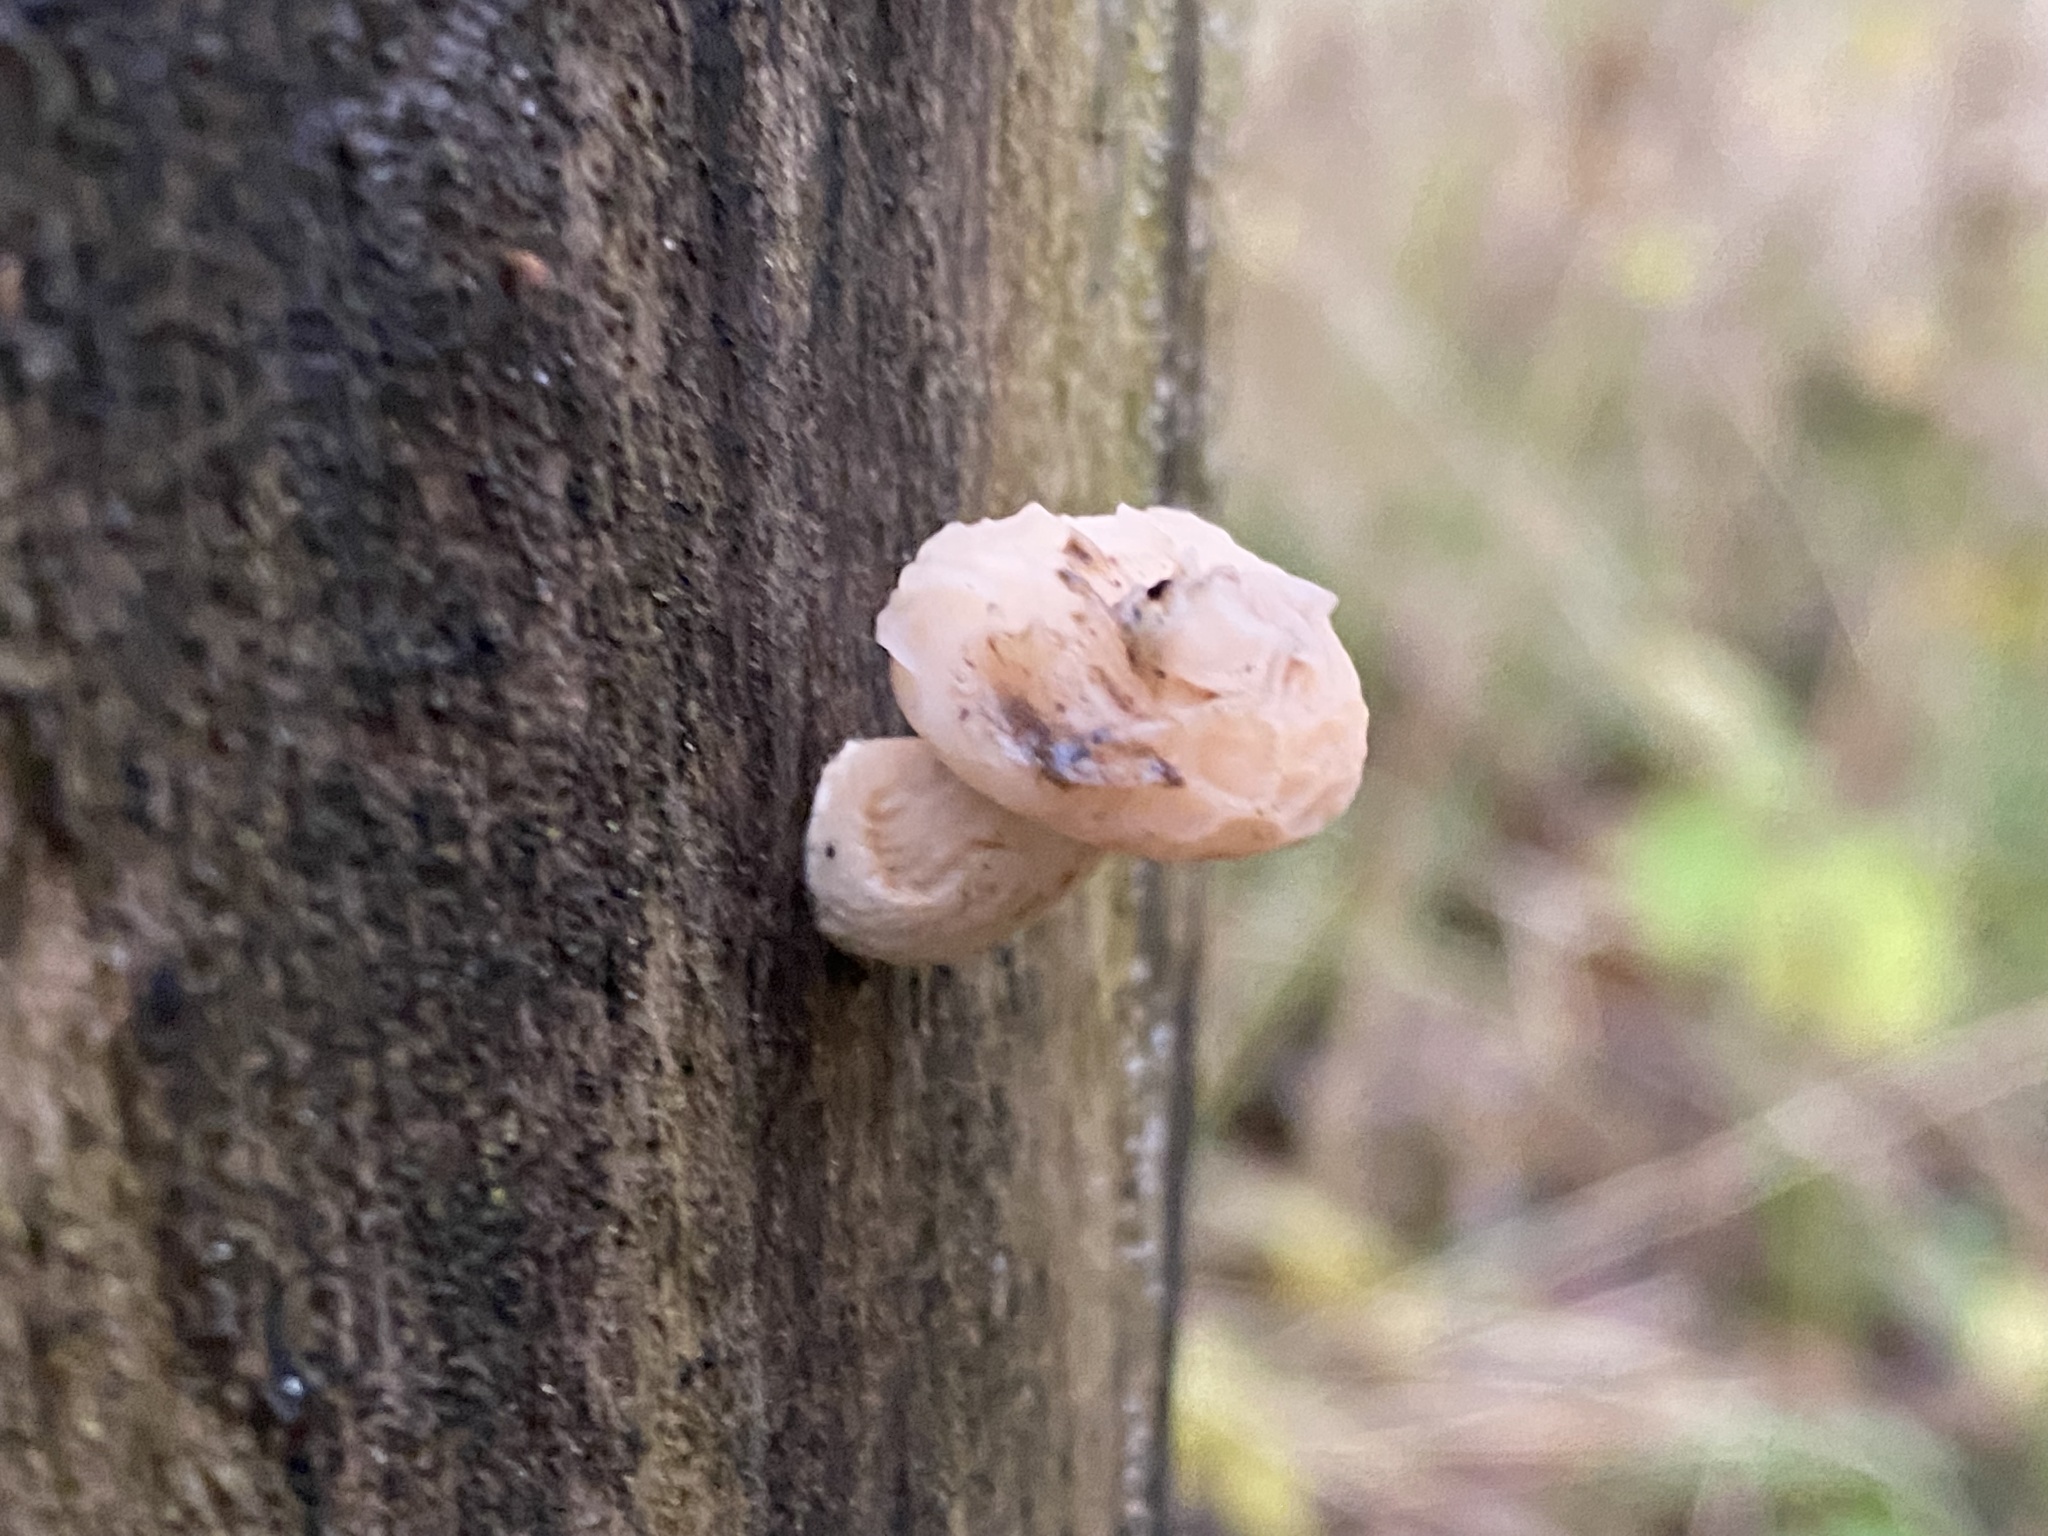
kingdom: Fungi
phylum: Basidiomycota
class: Agaricomycetes
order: Agaricales
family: Physalacriaceae
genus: Rhodotus
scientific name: Rhodotus palmatus
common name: Wrinkled peach
